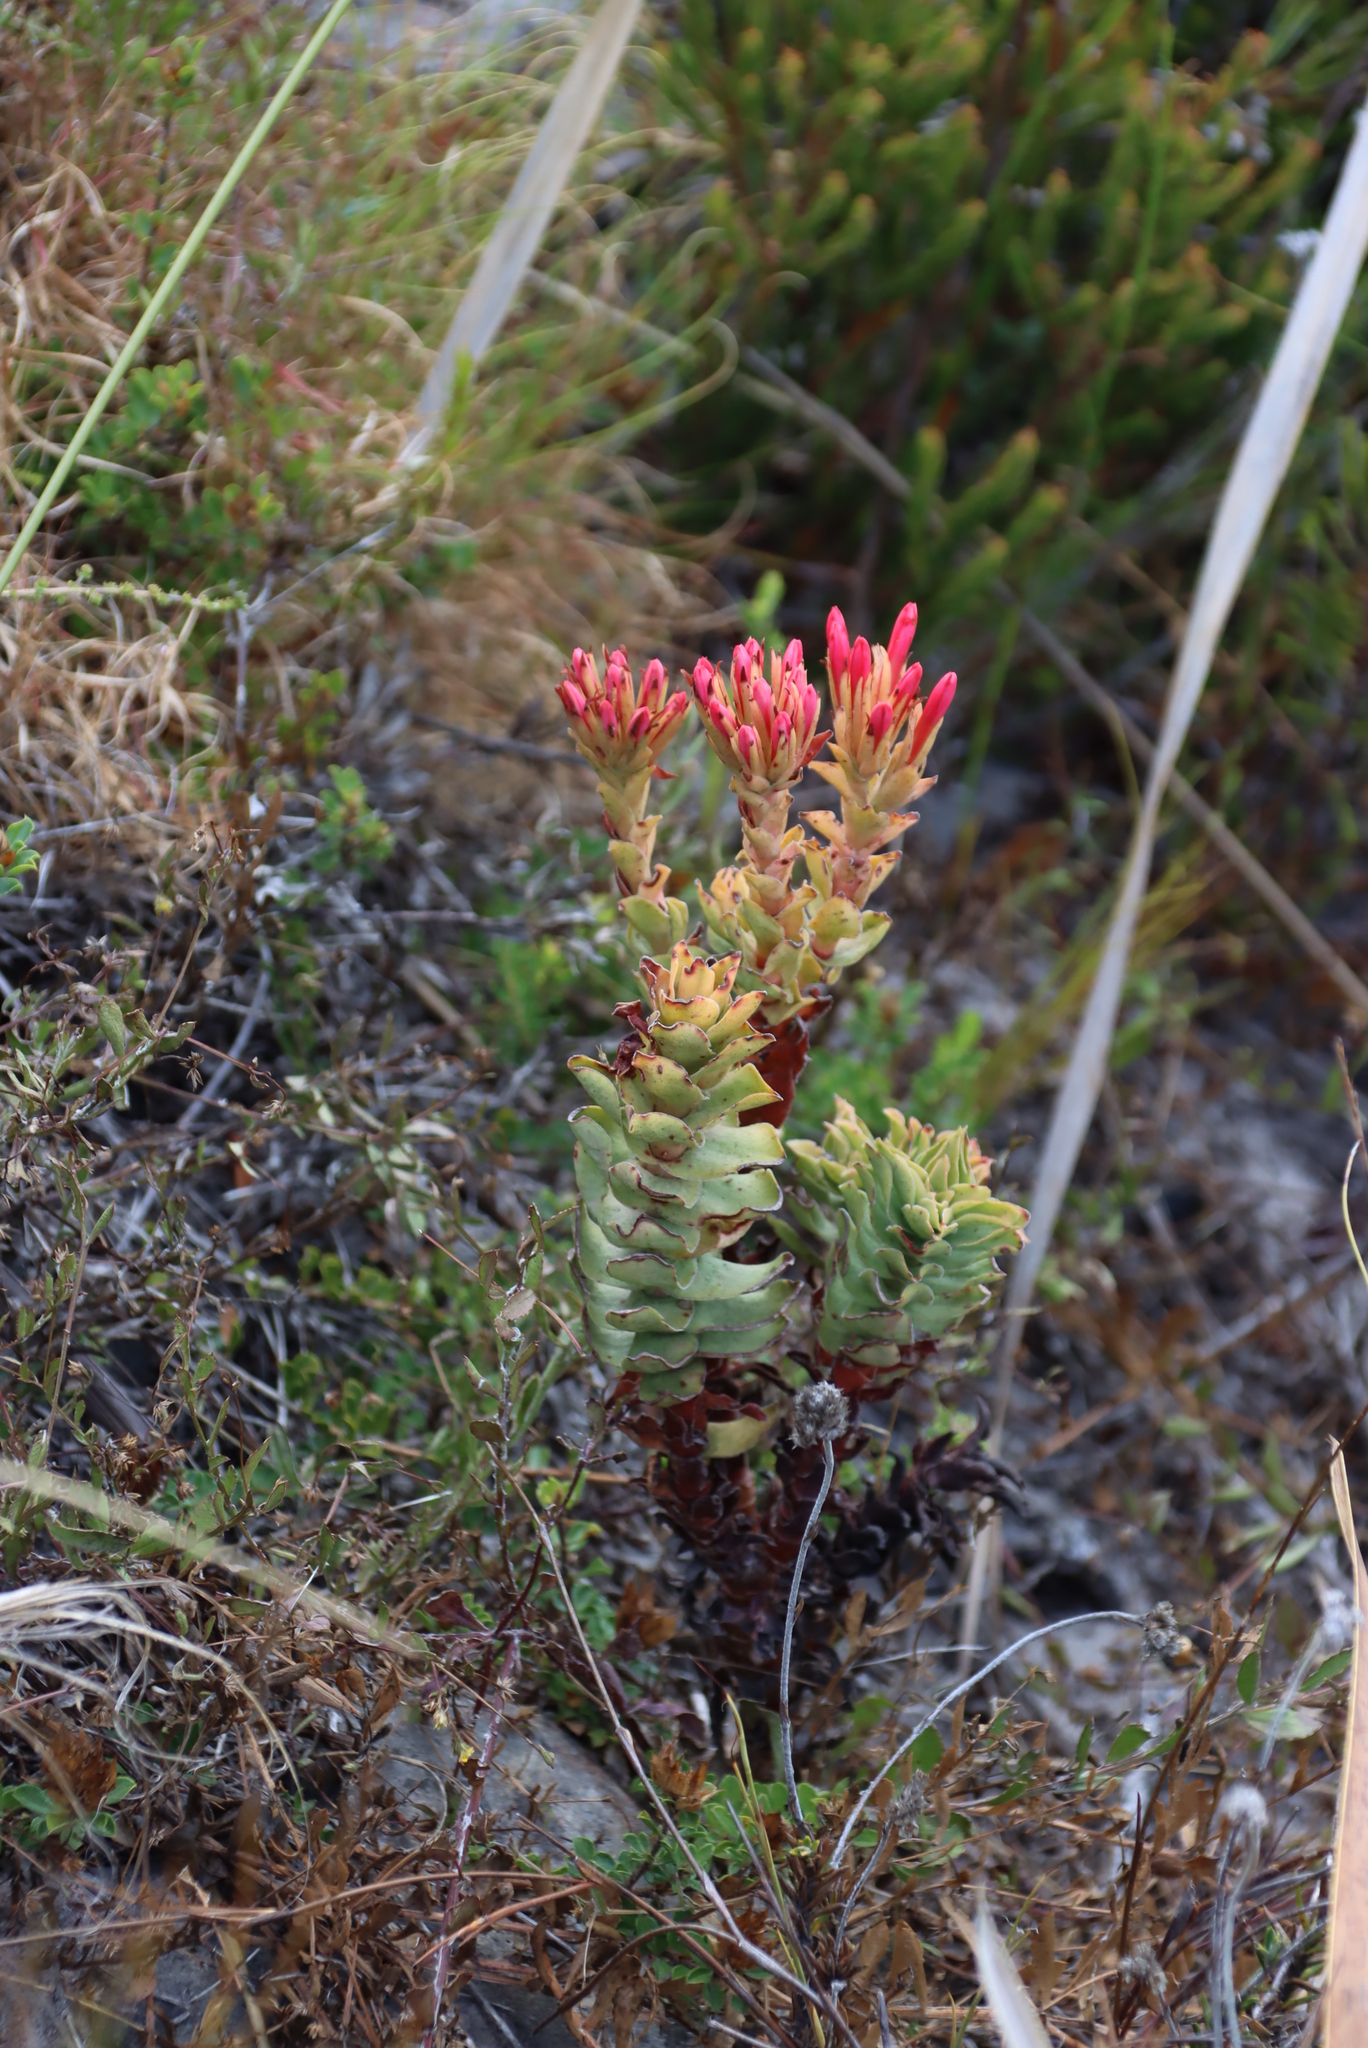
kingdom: Plantae
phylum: Tracheophyta
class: Magnoliopsida
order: Saxifragales
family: Crassulaceae
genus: Crassula
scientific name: Crassula coccinea
